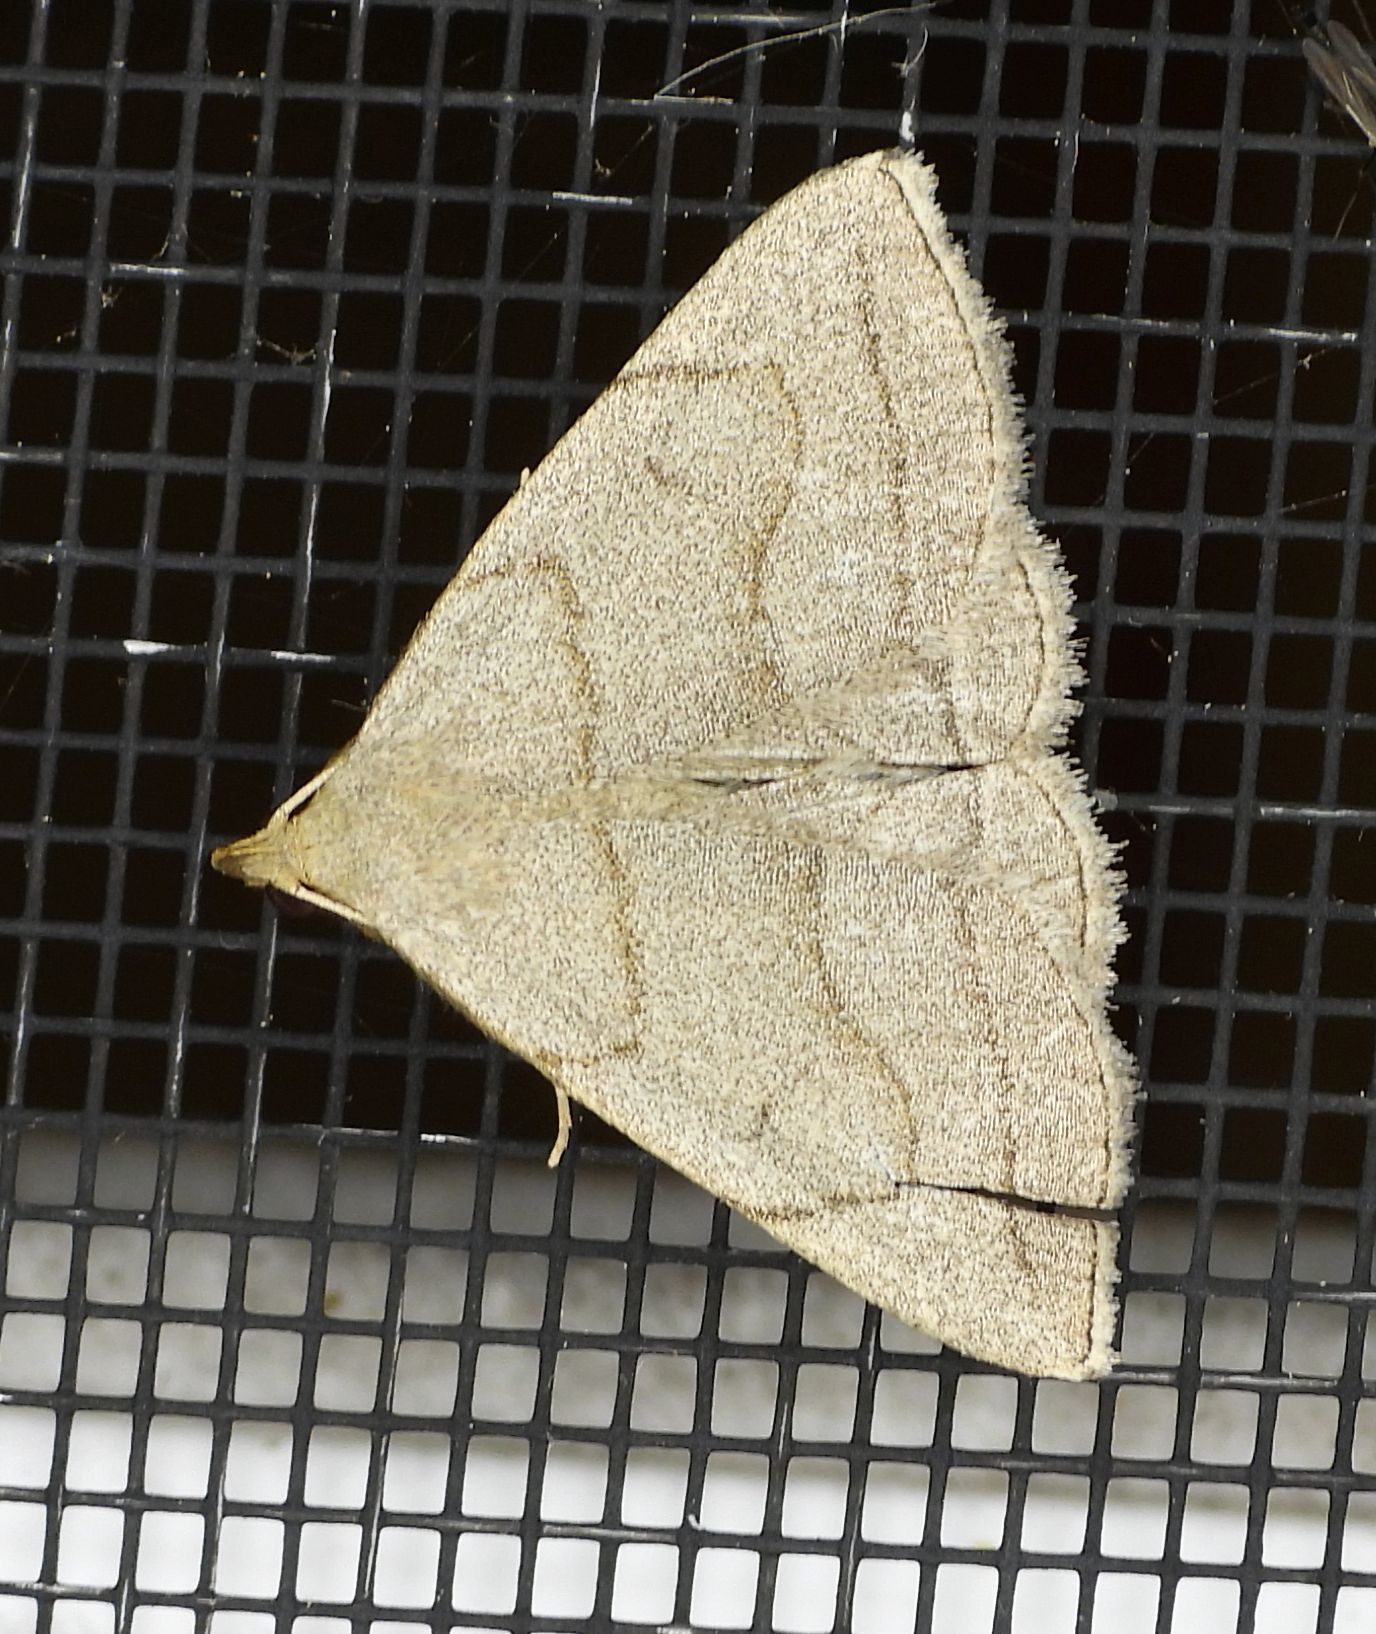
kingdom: Animalia
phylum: Arthropoda
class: Insecta
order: Lepidoptera
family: Erebidae
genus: Zanclognatha
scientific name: Zanclognatha pedipilalis
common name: Grayish fan-foot
